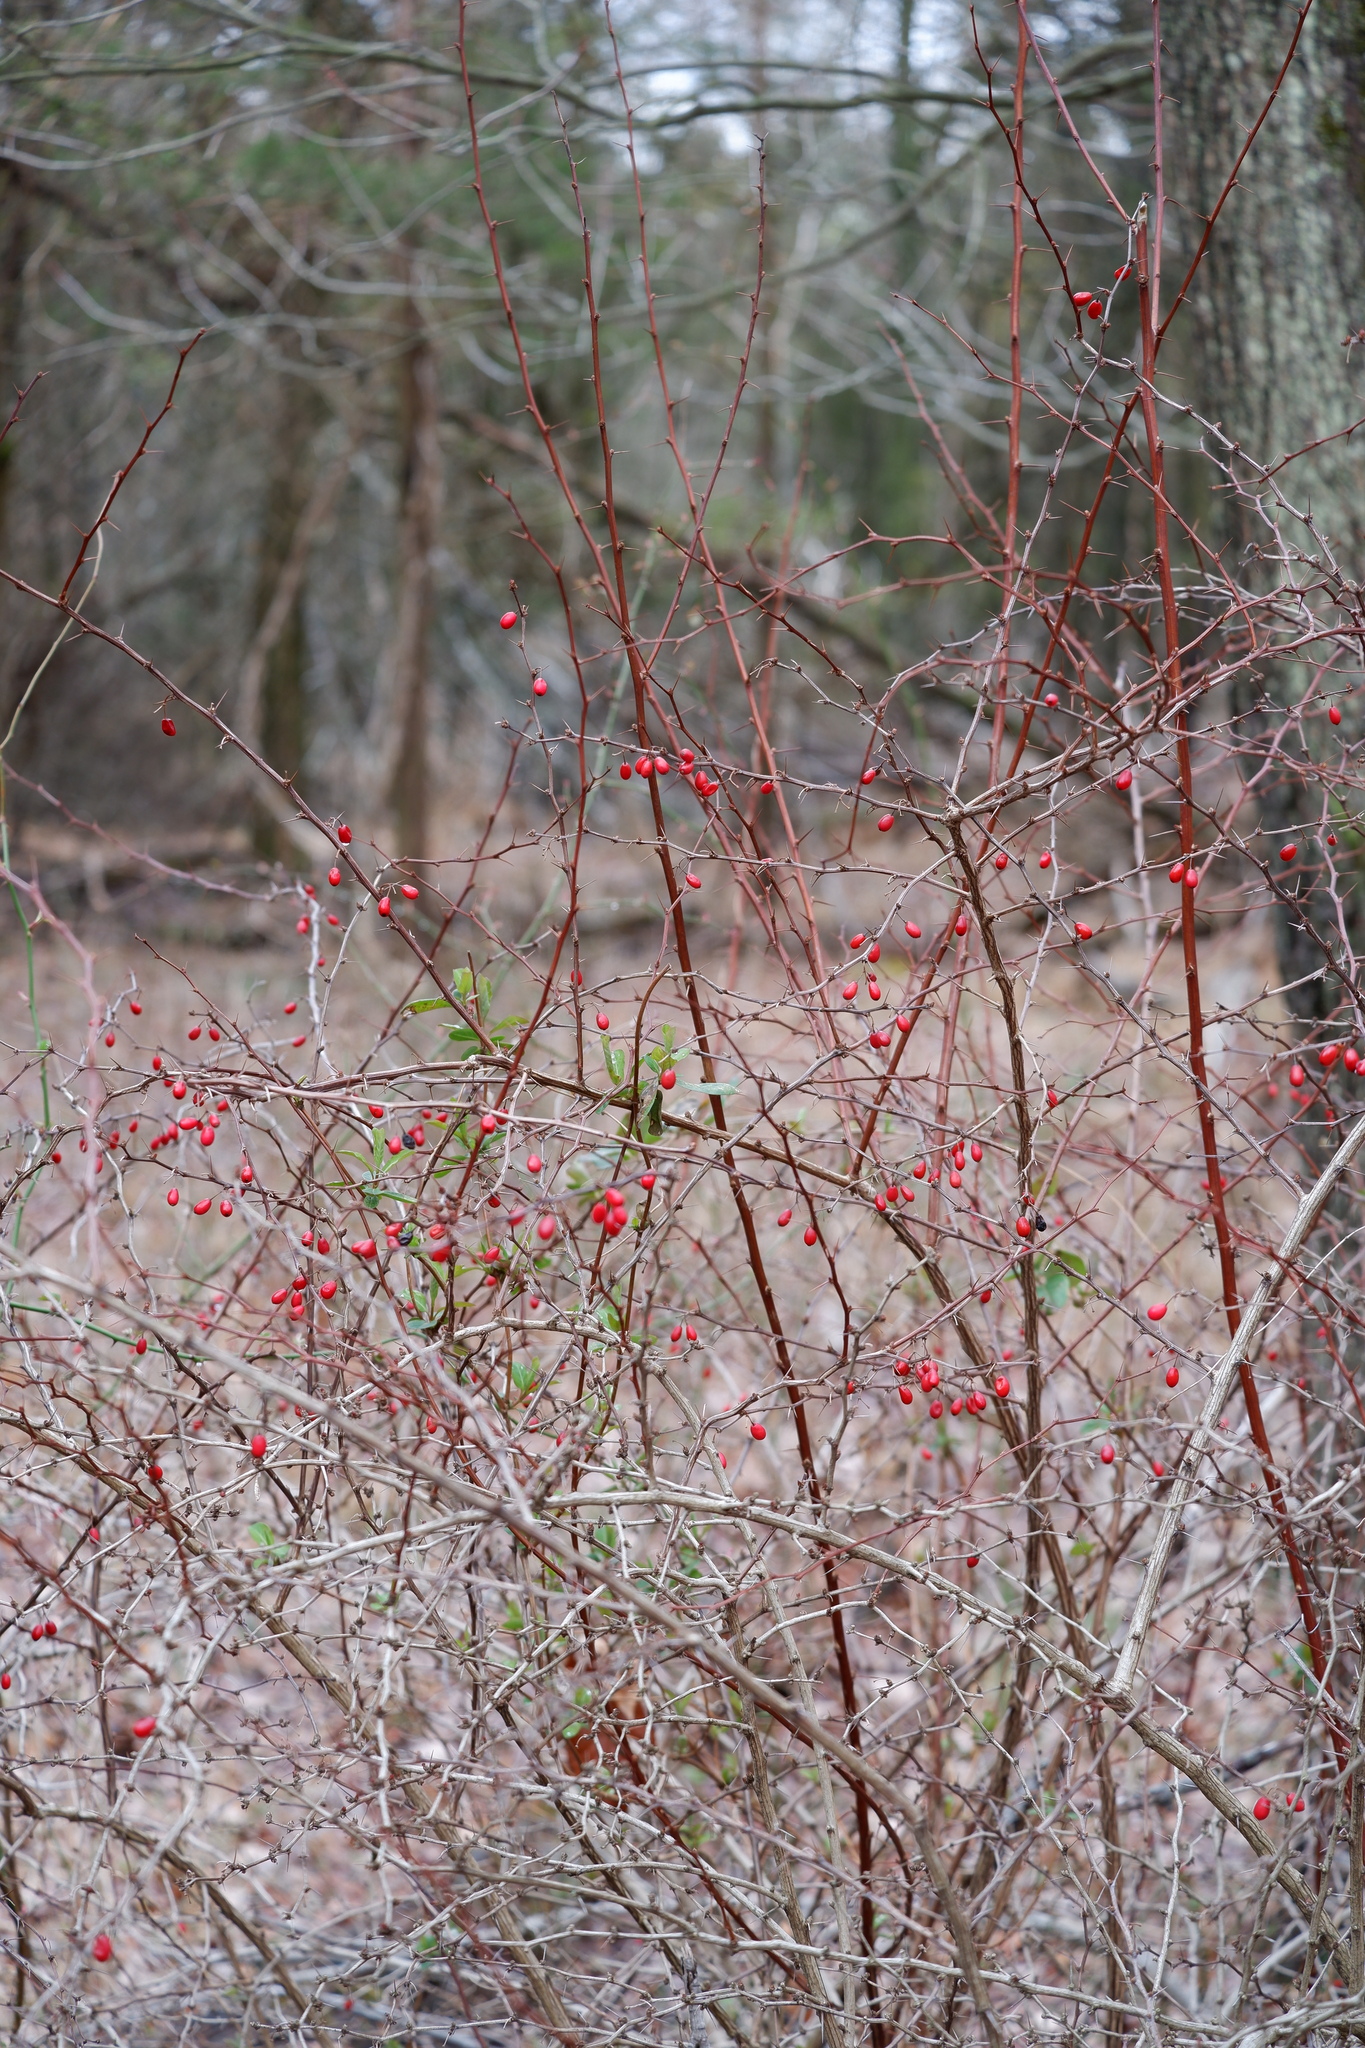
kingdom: Plantae
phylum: Tracheophyta
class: Magnoliopsida
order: Ranunculales
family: Berberidaceae
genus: Berberis
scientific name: Berberis thunbergii
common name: Japanese barberry
